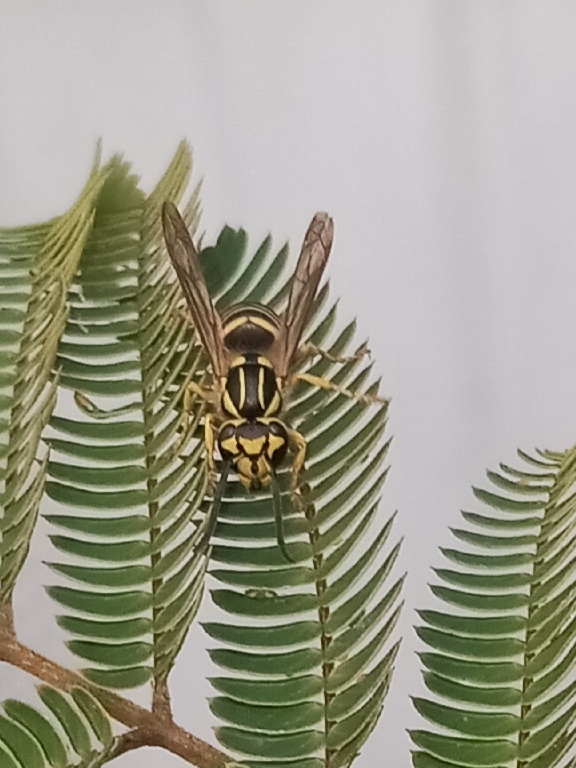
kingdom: Animalia
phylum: Arthropoda
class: Insecta
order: Hymenoptera
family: Vespidae
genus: Vespula
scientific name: Vespula squamosa
